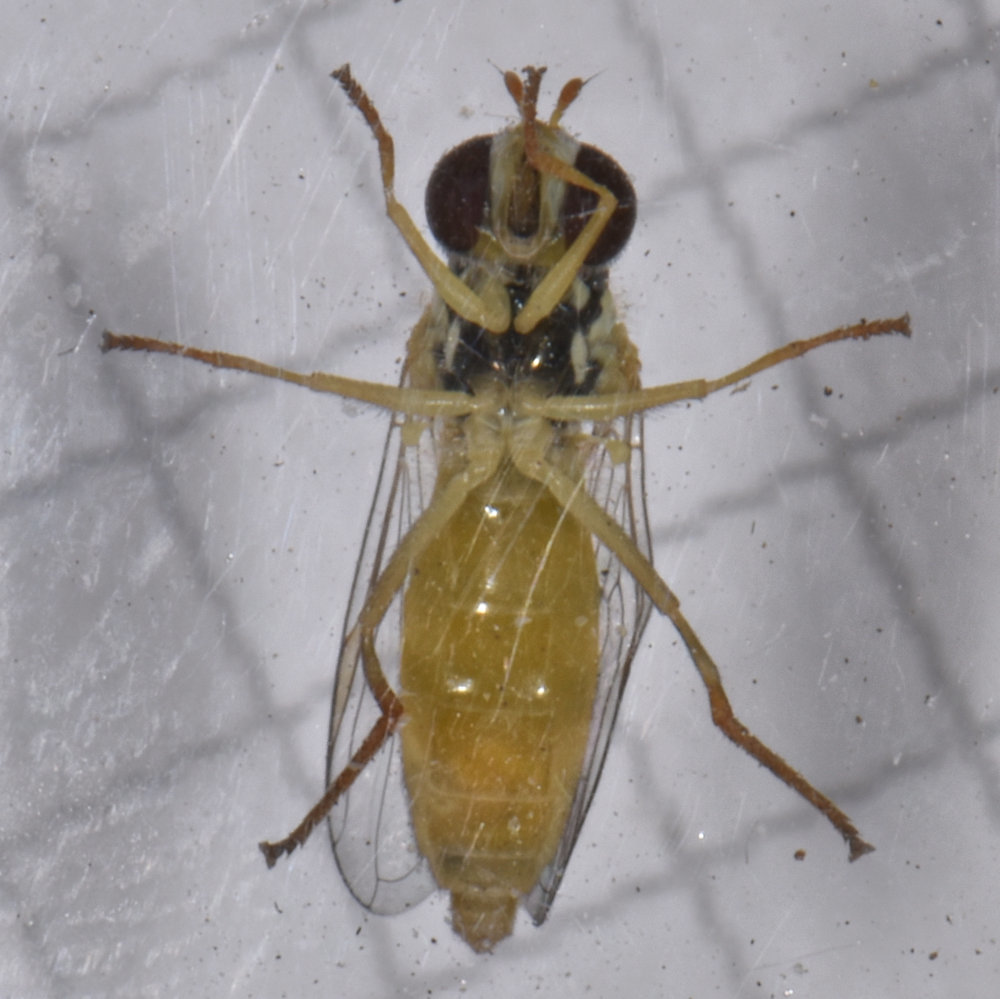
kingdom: Animalia
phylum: Arthropoda
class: Insecta
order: Diptera
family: Syrphidae
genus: Sphaerophoria
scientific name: Sphaerophoria philantha
